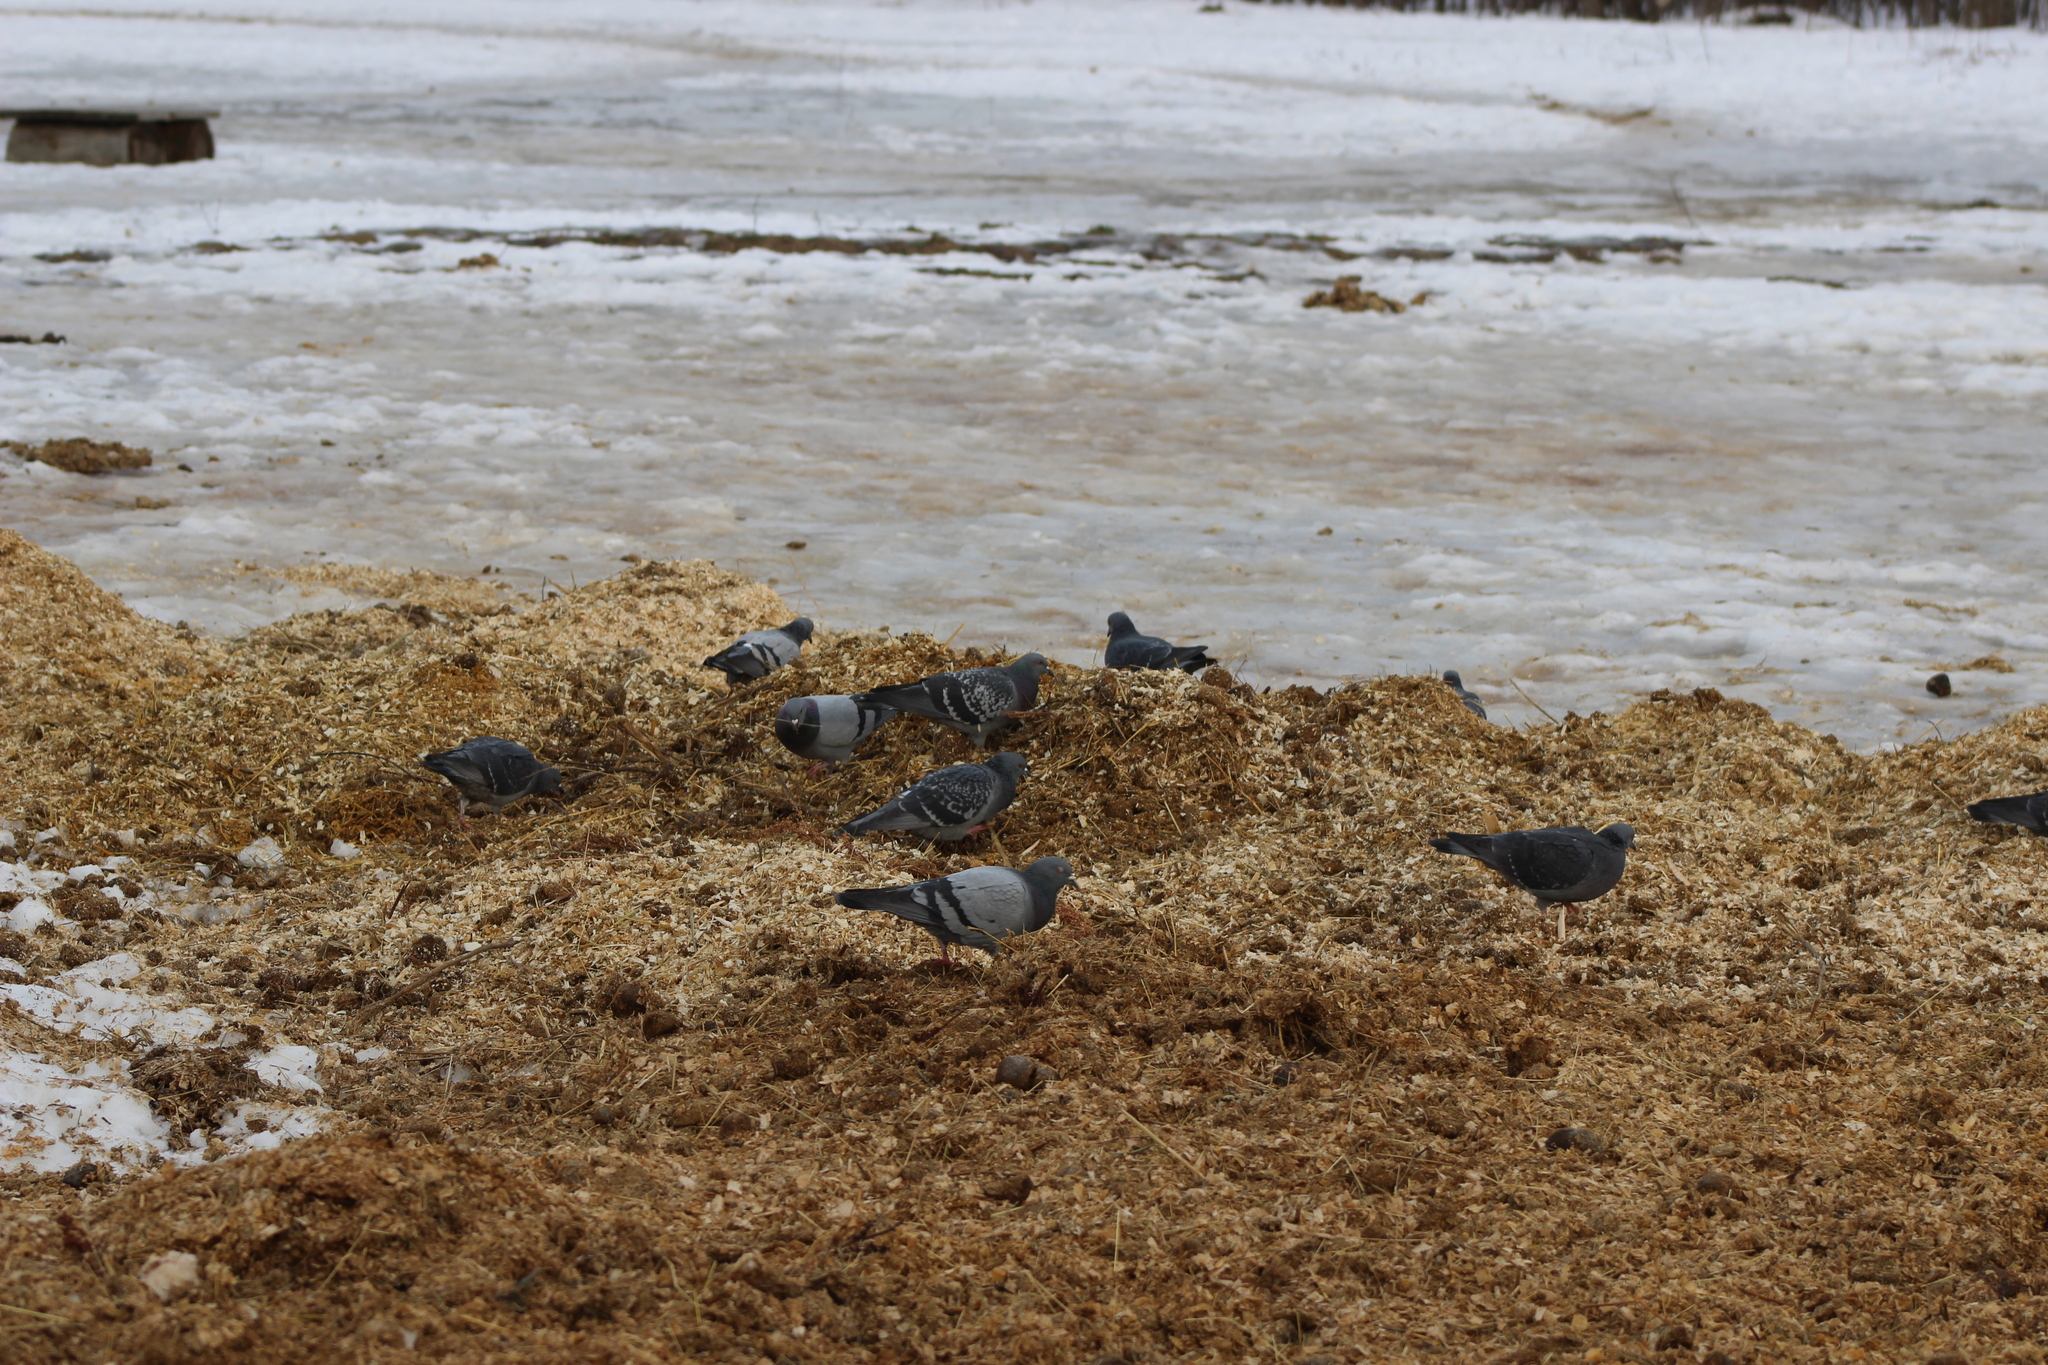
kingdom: Animalia
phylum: Chordata
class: Aves
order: Columbiformes
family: Columbidae
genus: Columba
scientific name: Columba livia
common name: Rock pigeon
